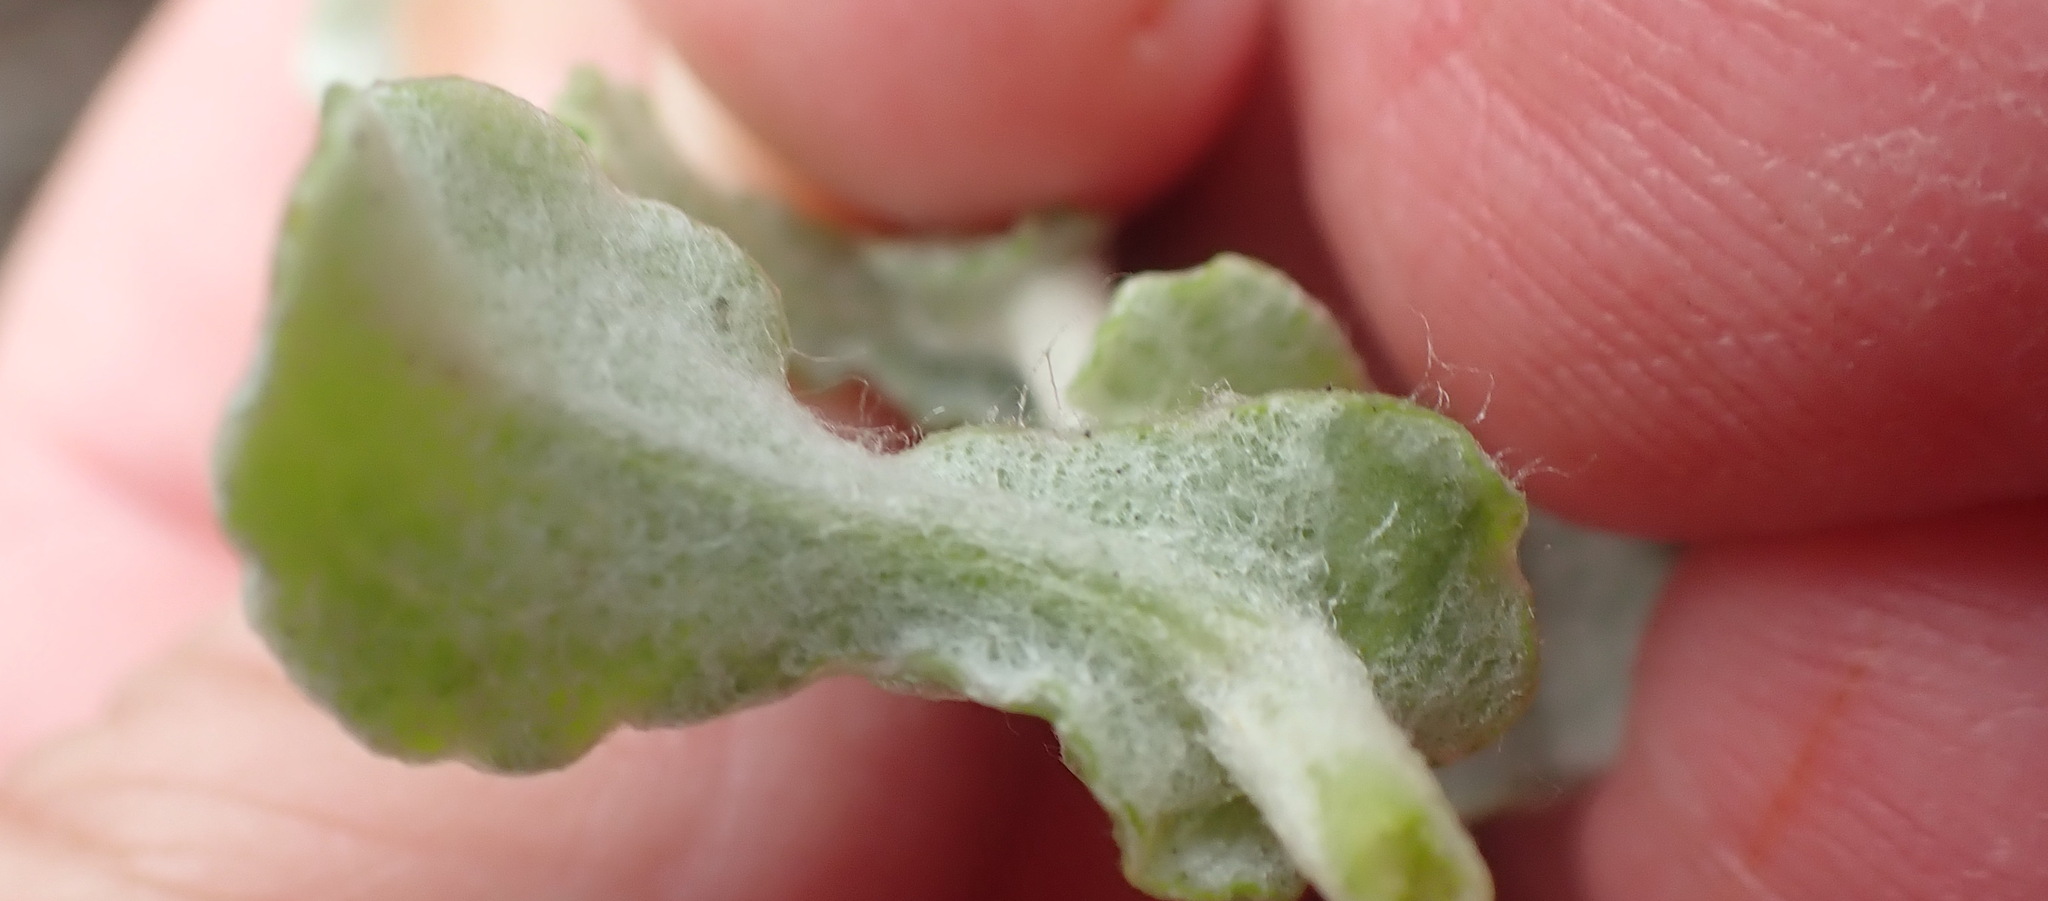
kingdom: Plantae
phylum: Tracheophyta
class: Magnoliopsida
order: Asterales
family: Asteraceae
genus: Helichrysum
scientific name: Helichrysum patulum
